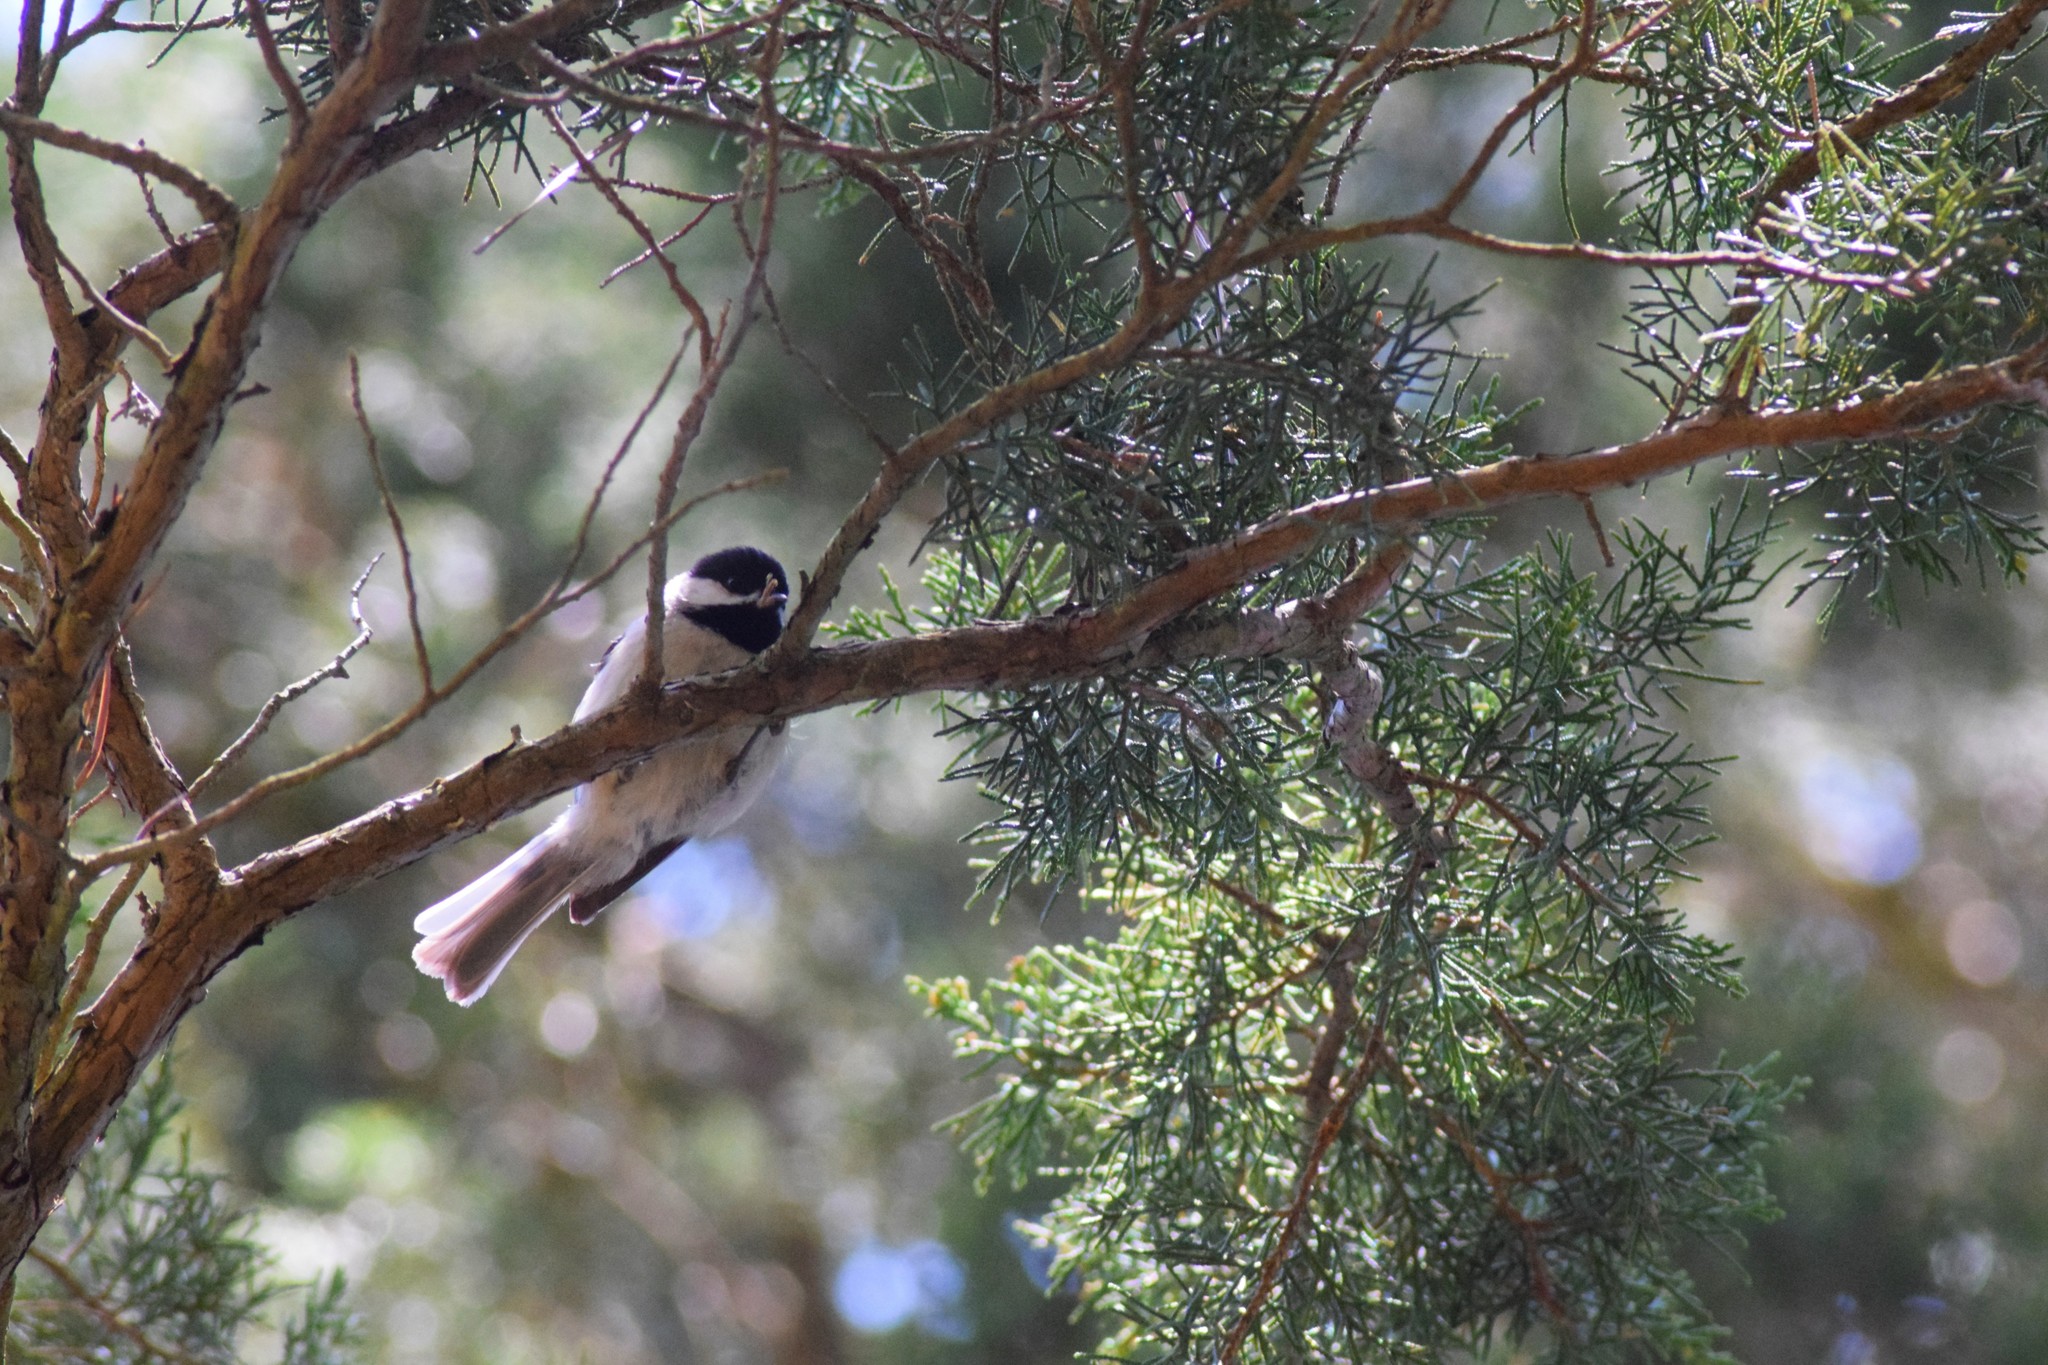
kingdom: Animalia
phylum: Chordata
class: Aves
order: Passeriformes
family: Paridae
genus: Poecile
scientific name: Poecile carolinensis
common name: Carolina chickadee
